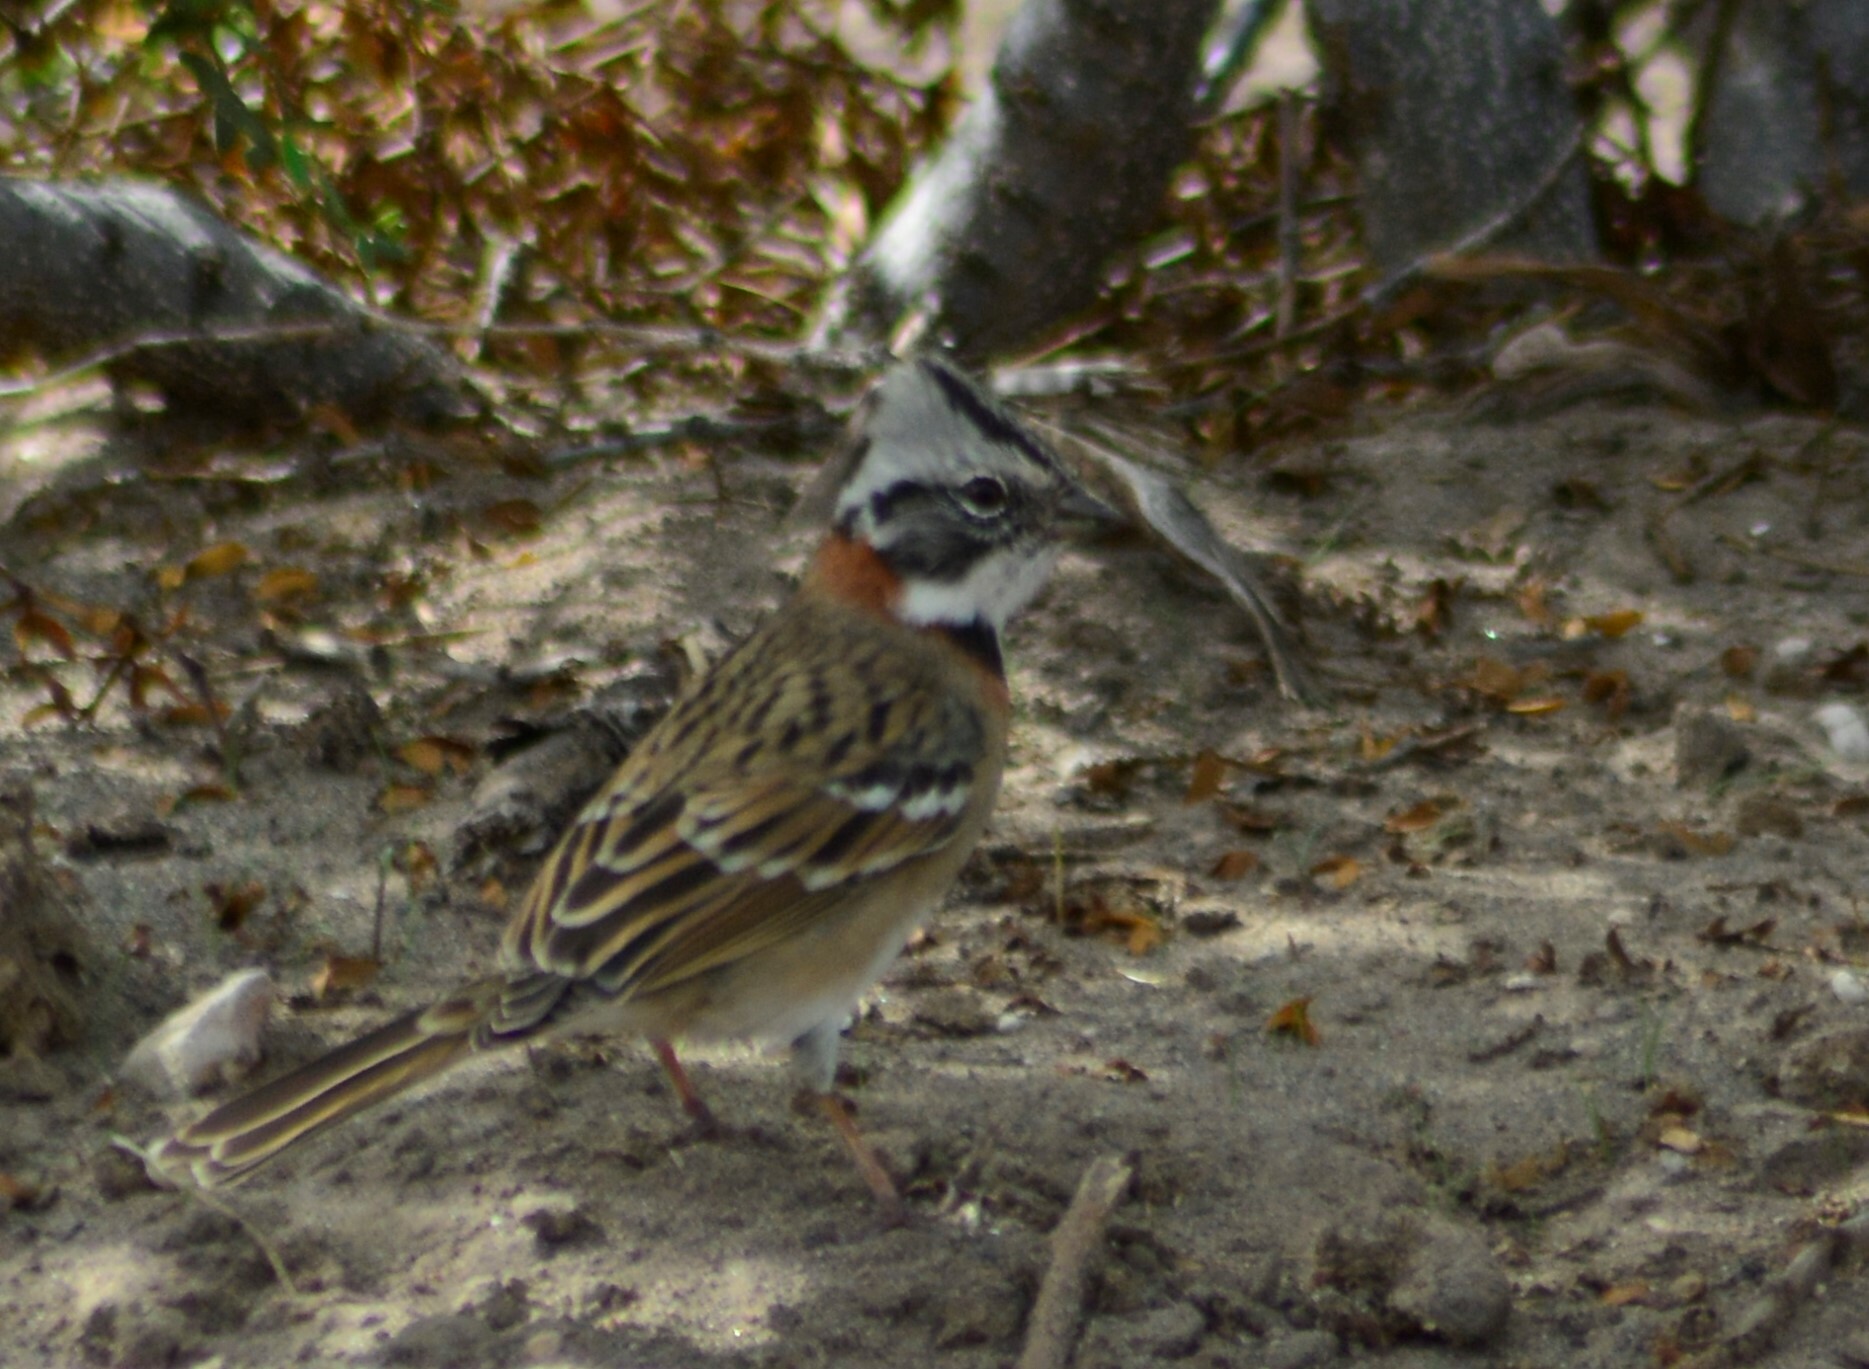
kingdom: Animalia
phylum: Chordata
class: Aves
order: Passeriformes
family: Passerellidae
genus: Zonotrichia
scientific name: Zonotrichia capensis
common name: Rufous-collared sparrow
